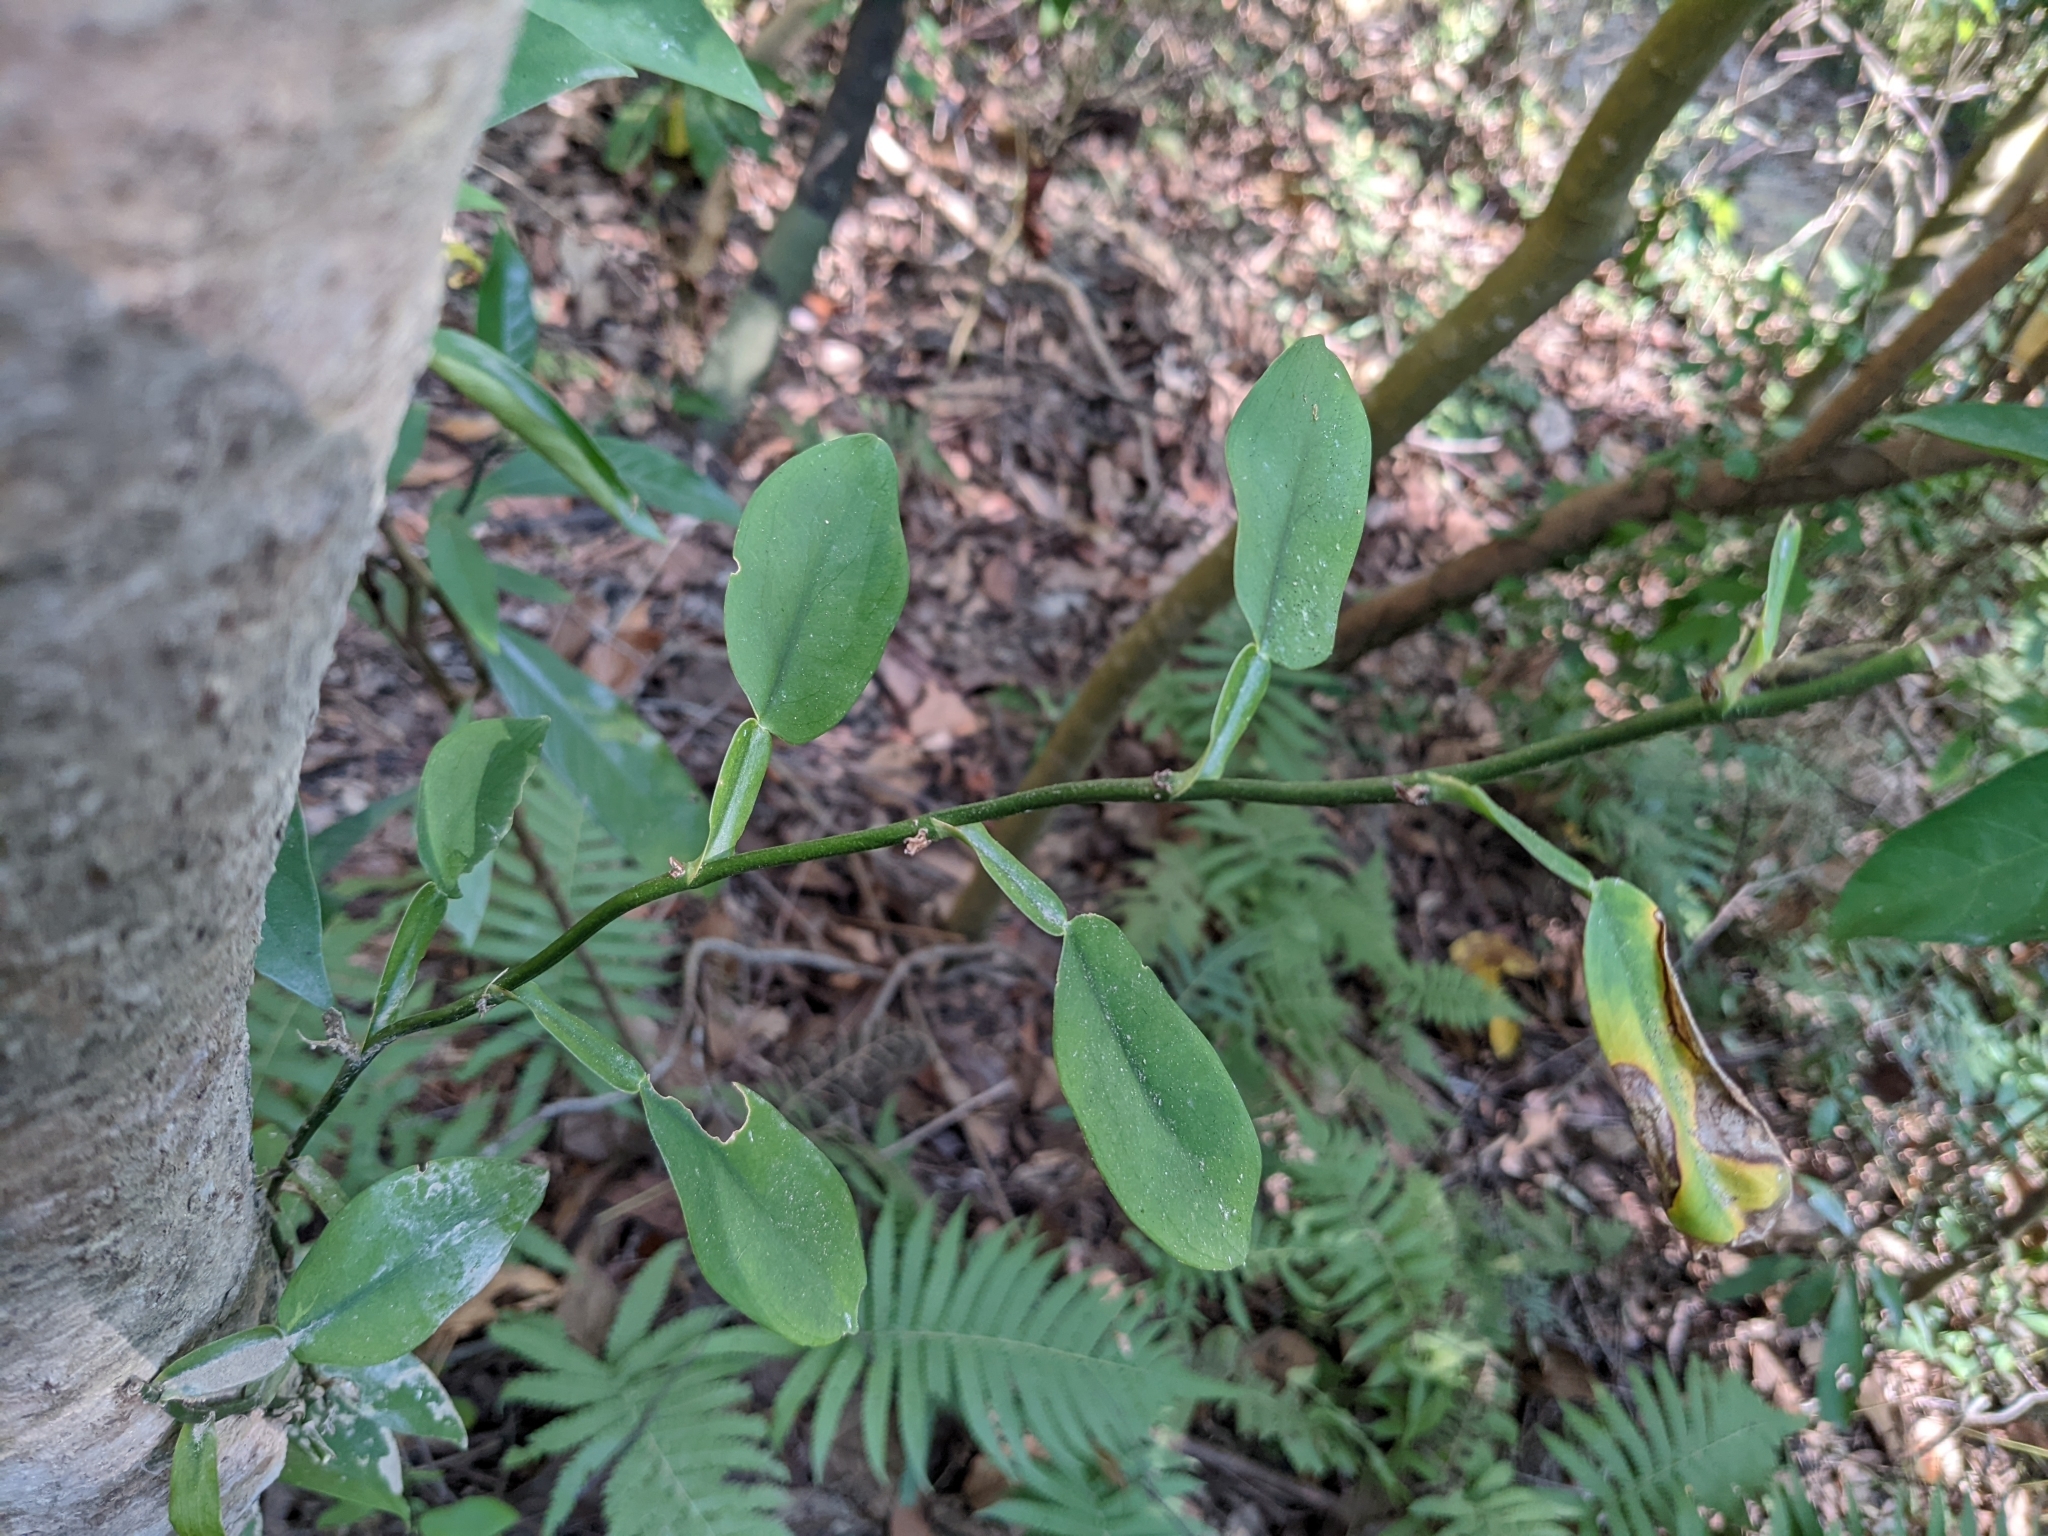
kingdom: Plantae
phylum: Tracheophyta
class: Liliopsida
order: Alismatales
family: Araceae
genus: Pothos
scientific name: Pothos chinensis
